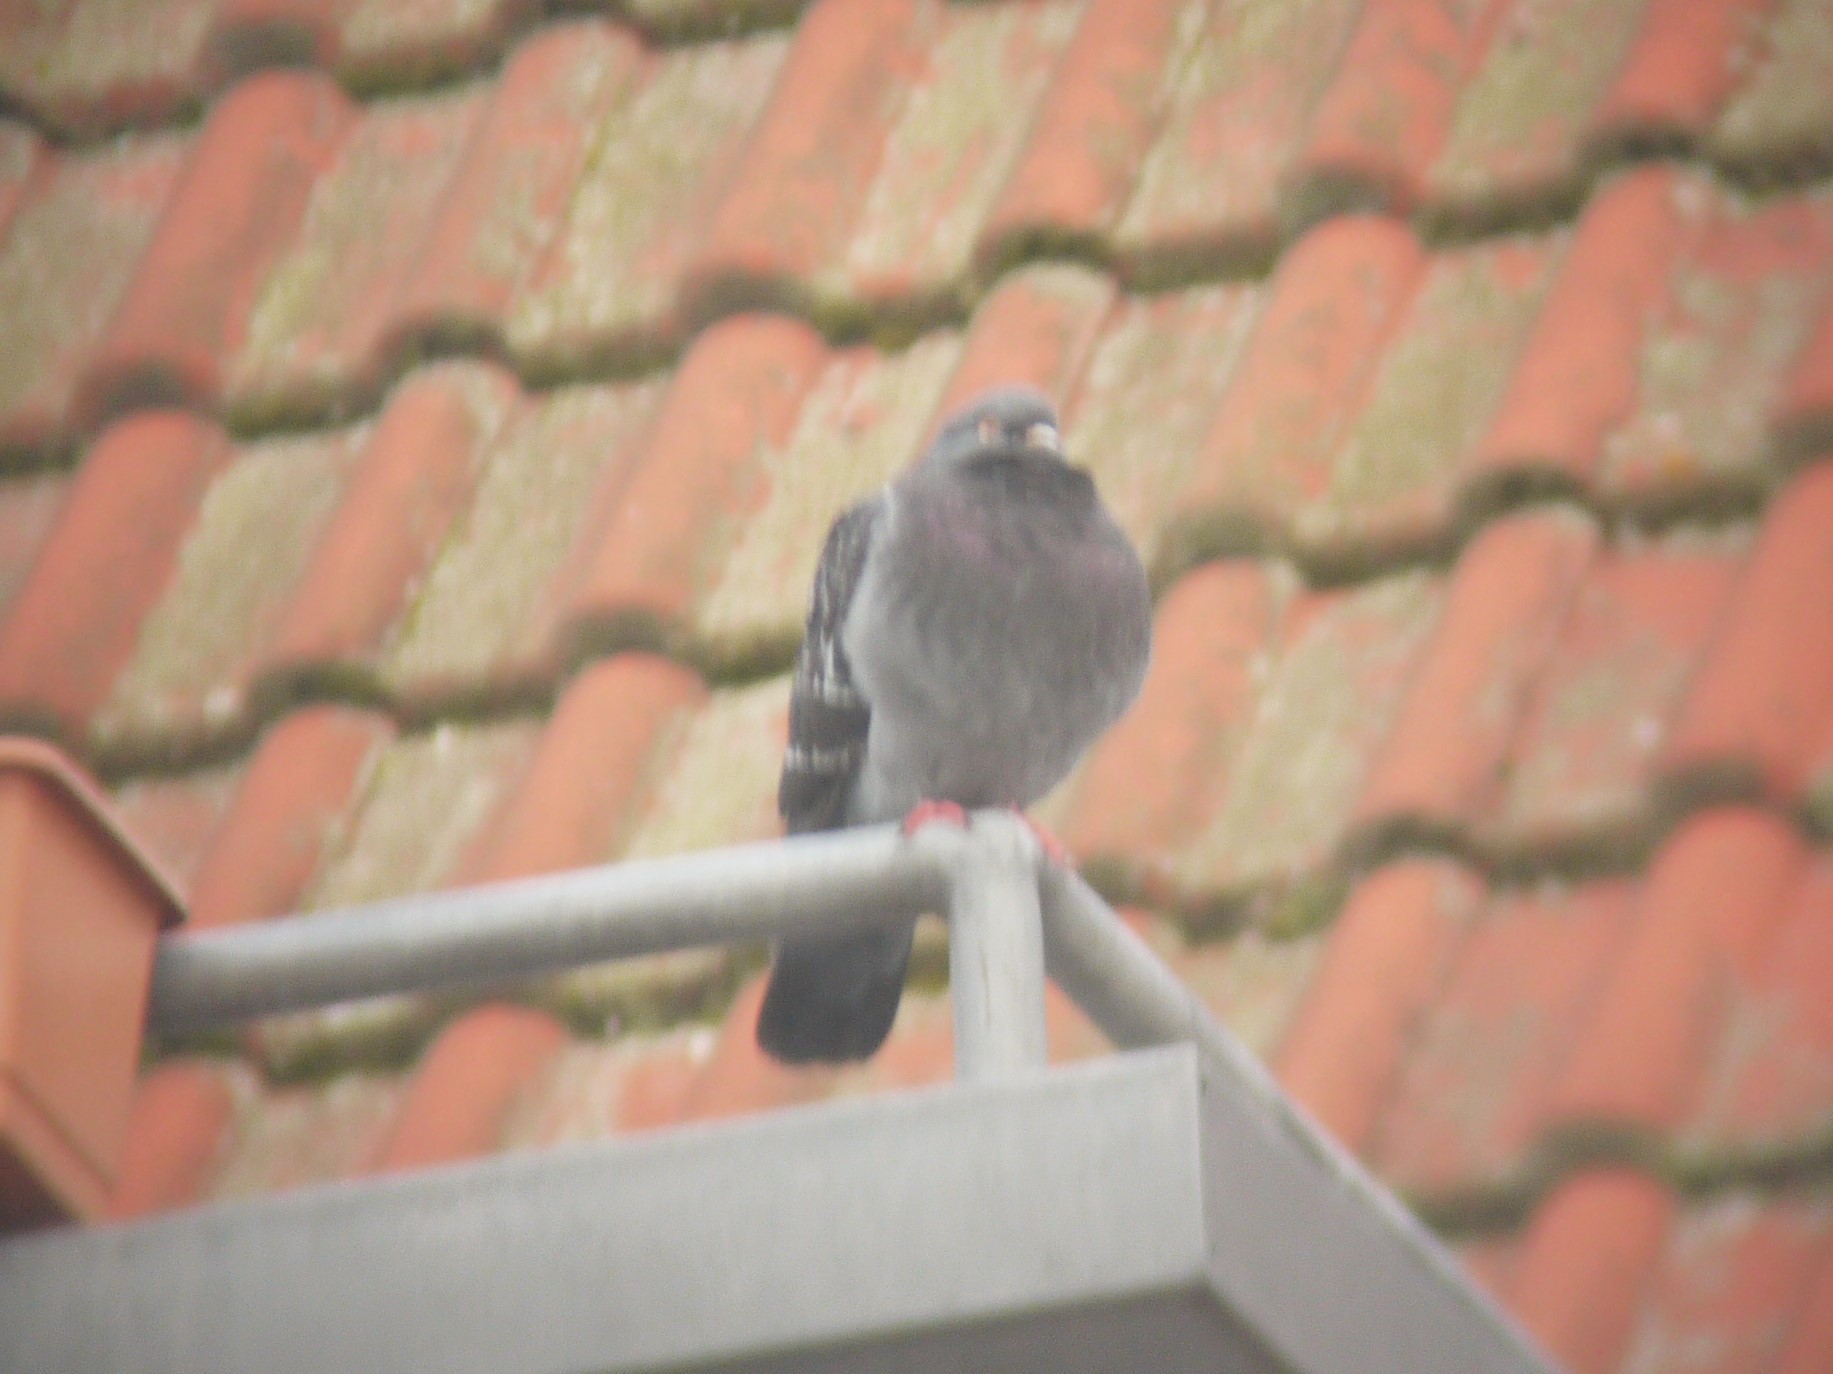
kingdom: Animalia
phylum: Chordata
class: Aves
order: Columbiformes
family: Columbidae
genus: Columba
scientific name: Columba livia
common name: Rock pigeon
